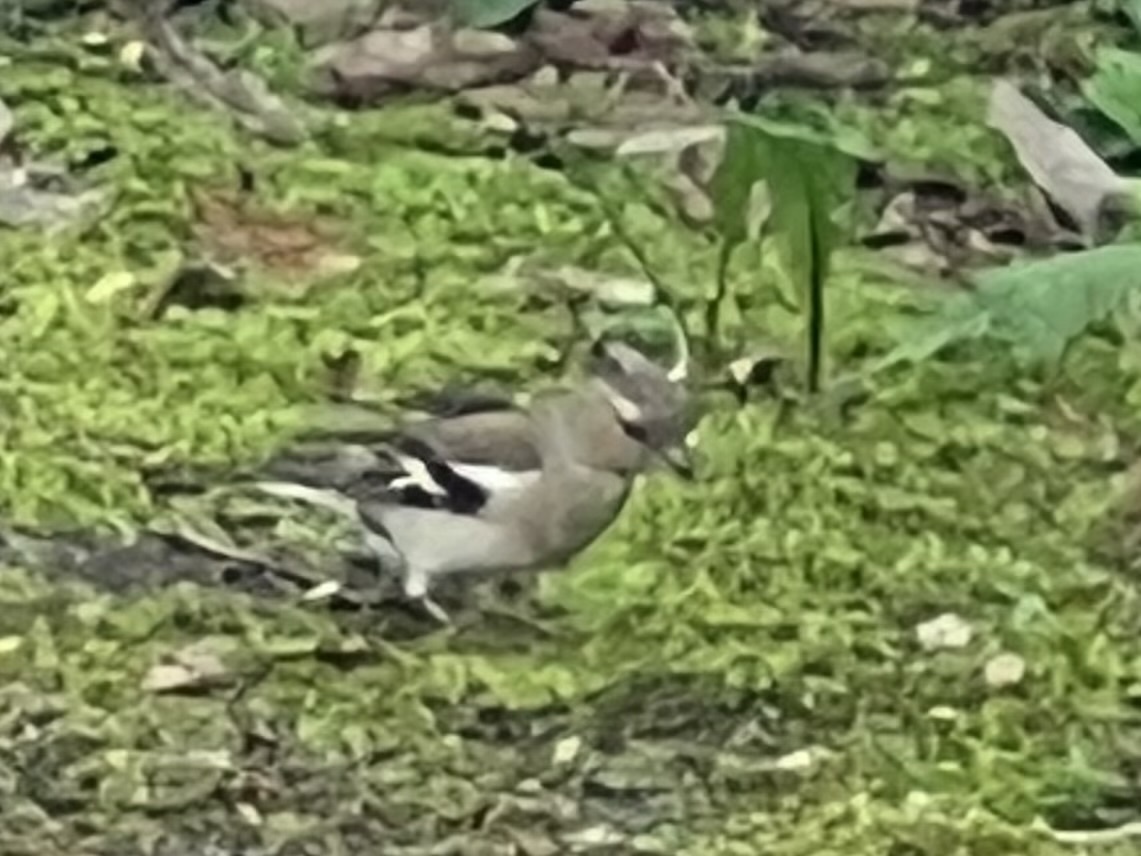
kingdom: Animalia
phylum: Chordata
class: Aves
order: Passeriformes
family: Fringillidae
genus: Fringilla
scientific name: Fringilla coelebs
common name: Common chaffinch
